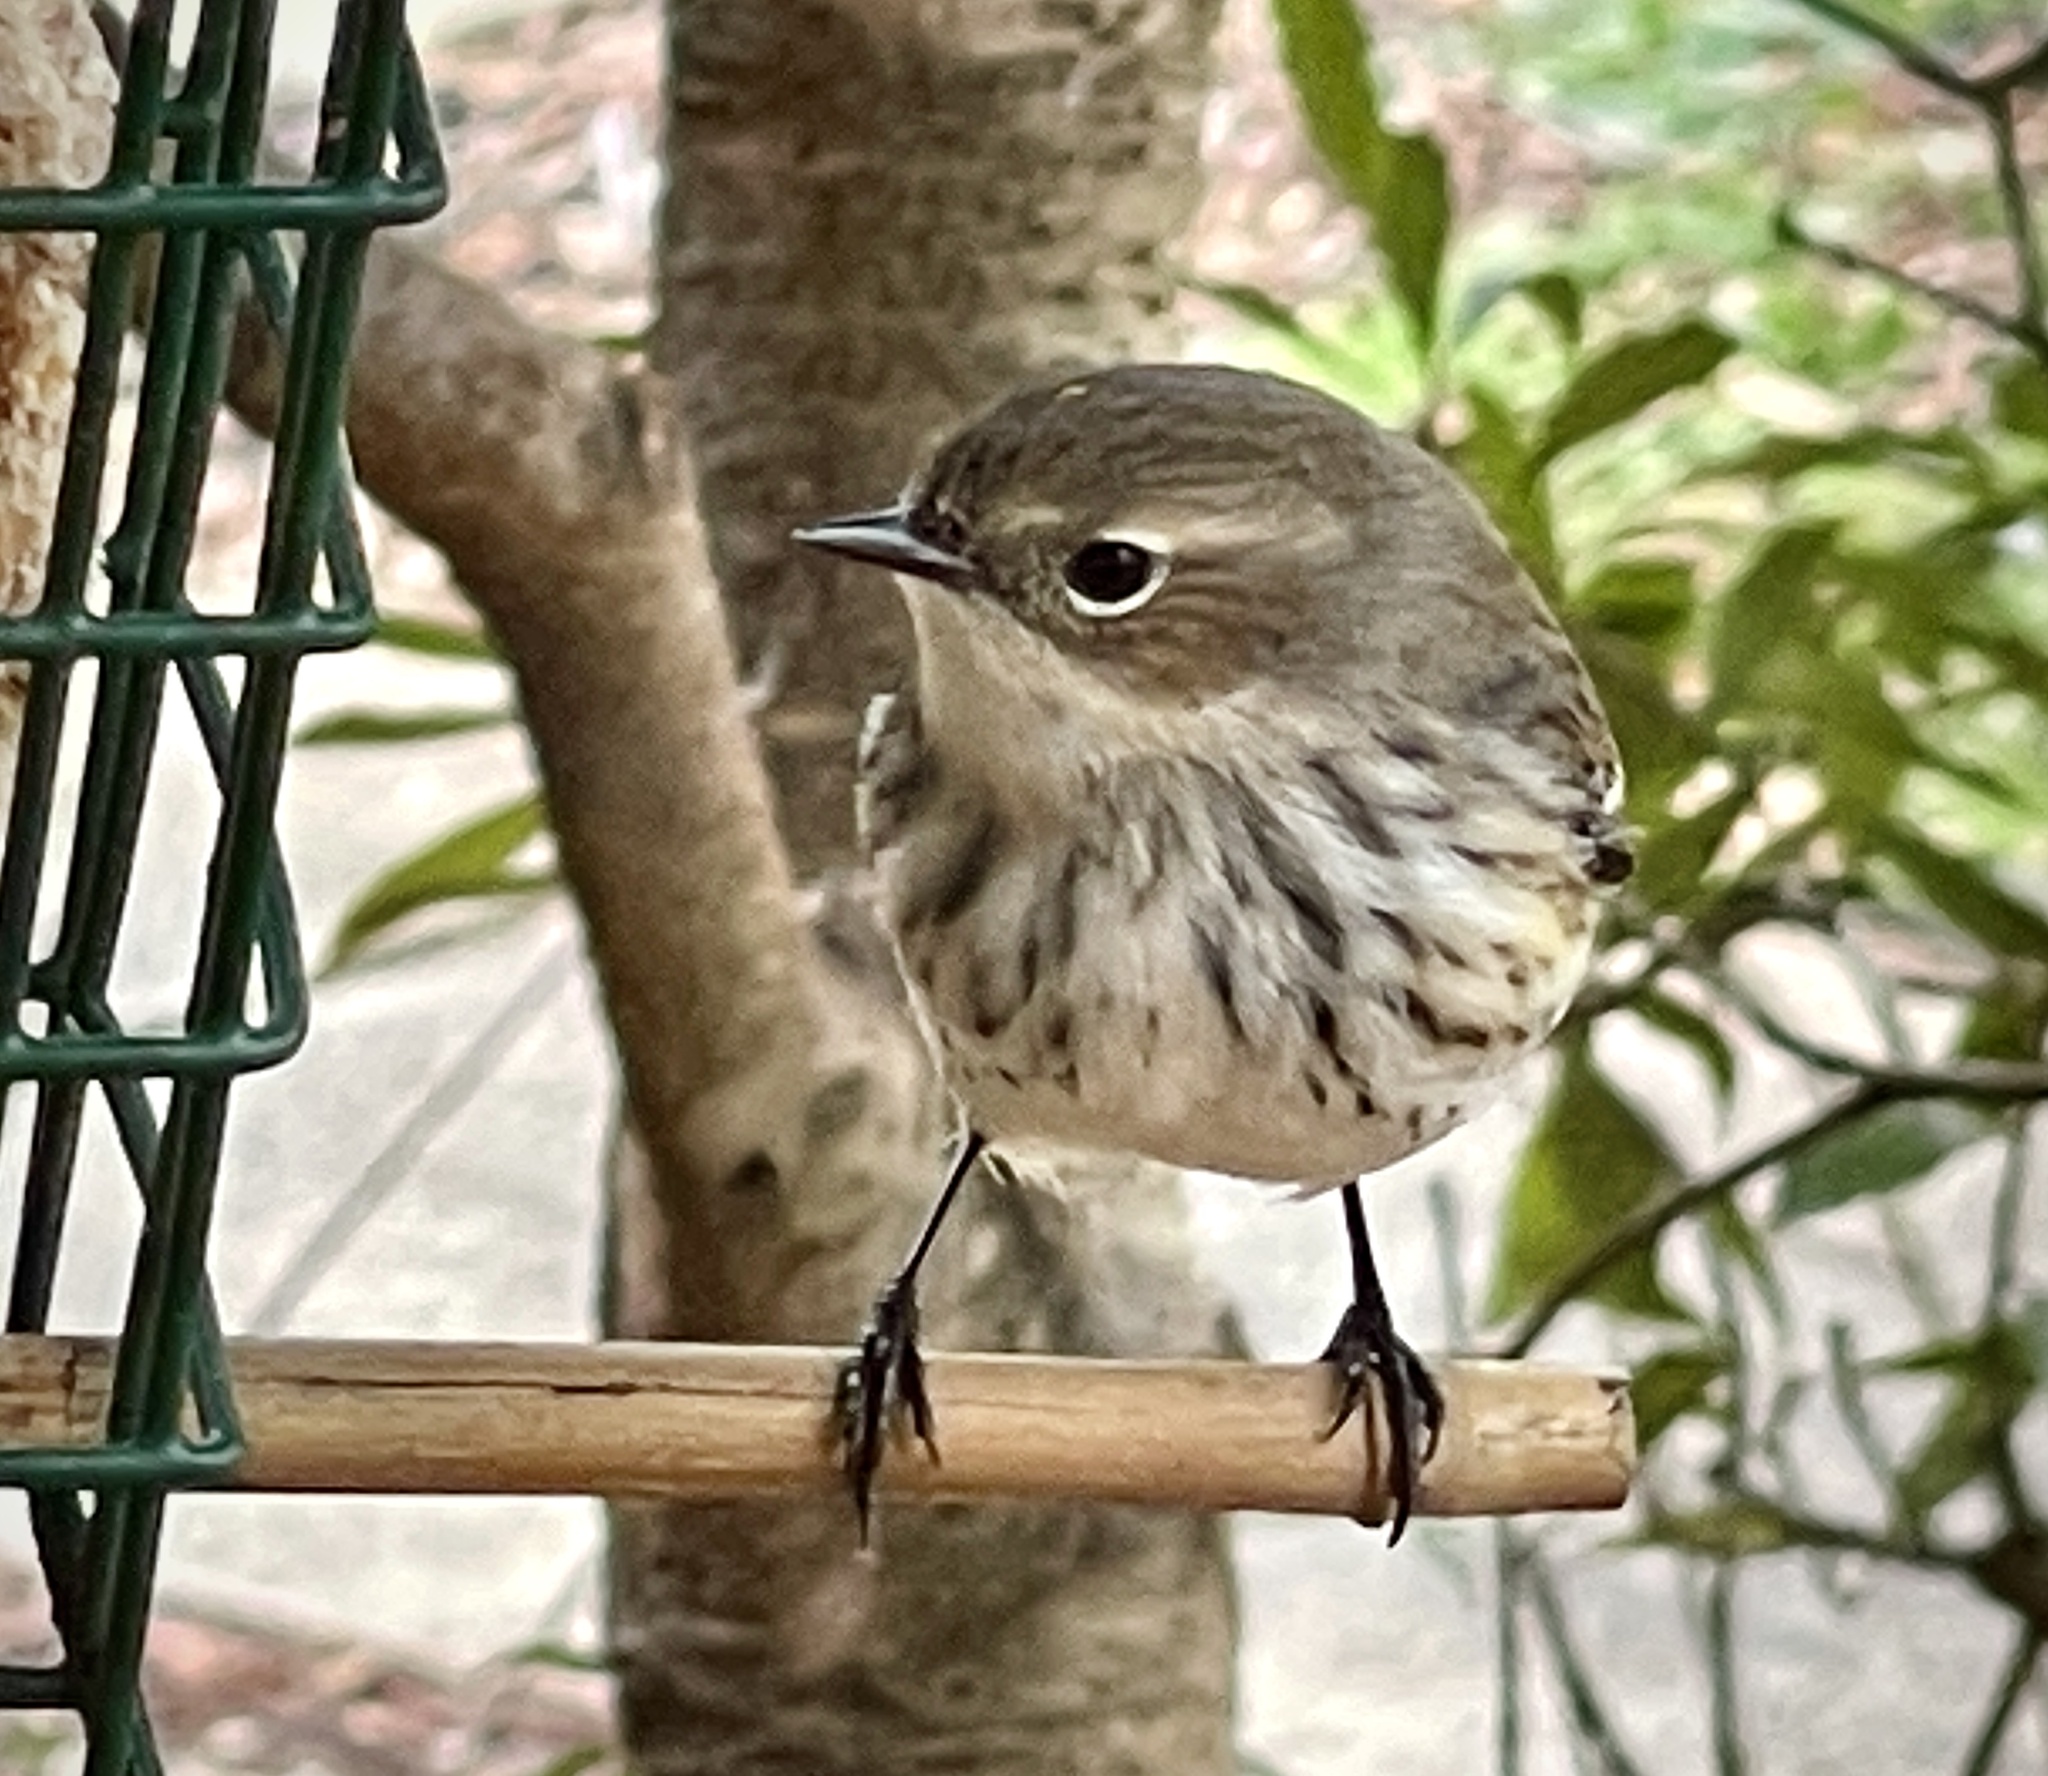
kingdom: Animalia
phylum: Chordata
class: Aves
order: Passeriformes
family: Parulidae
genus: Setophaga
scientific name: Setophaga coronata
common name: Myrtle warbler
